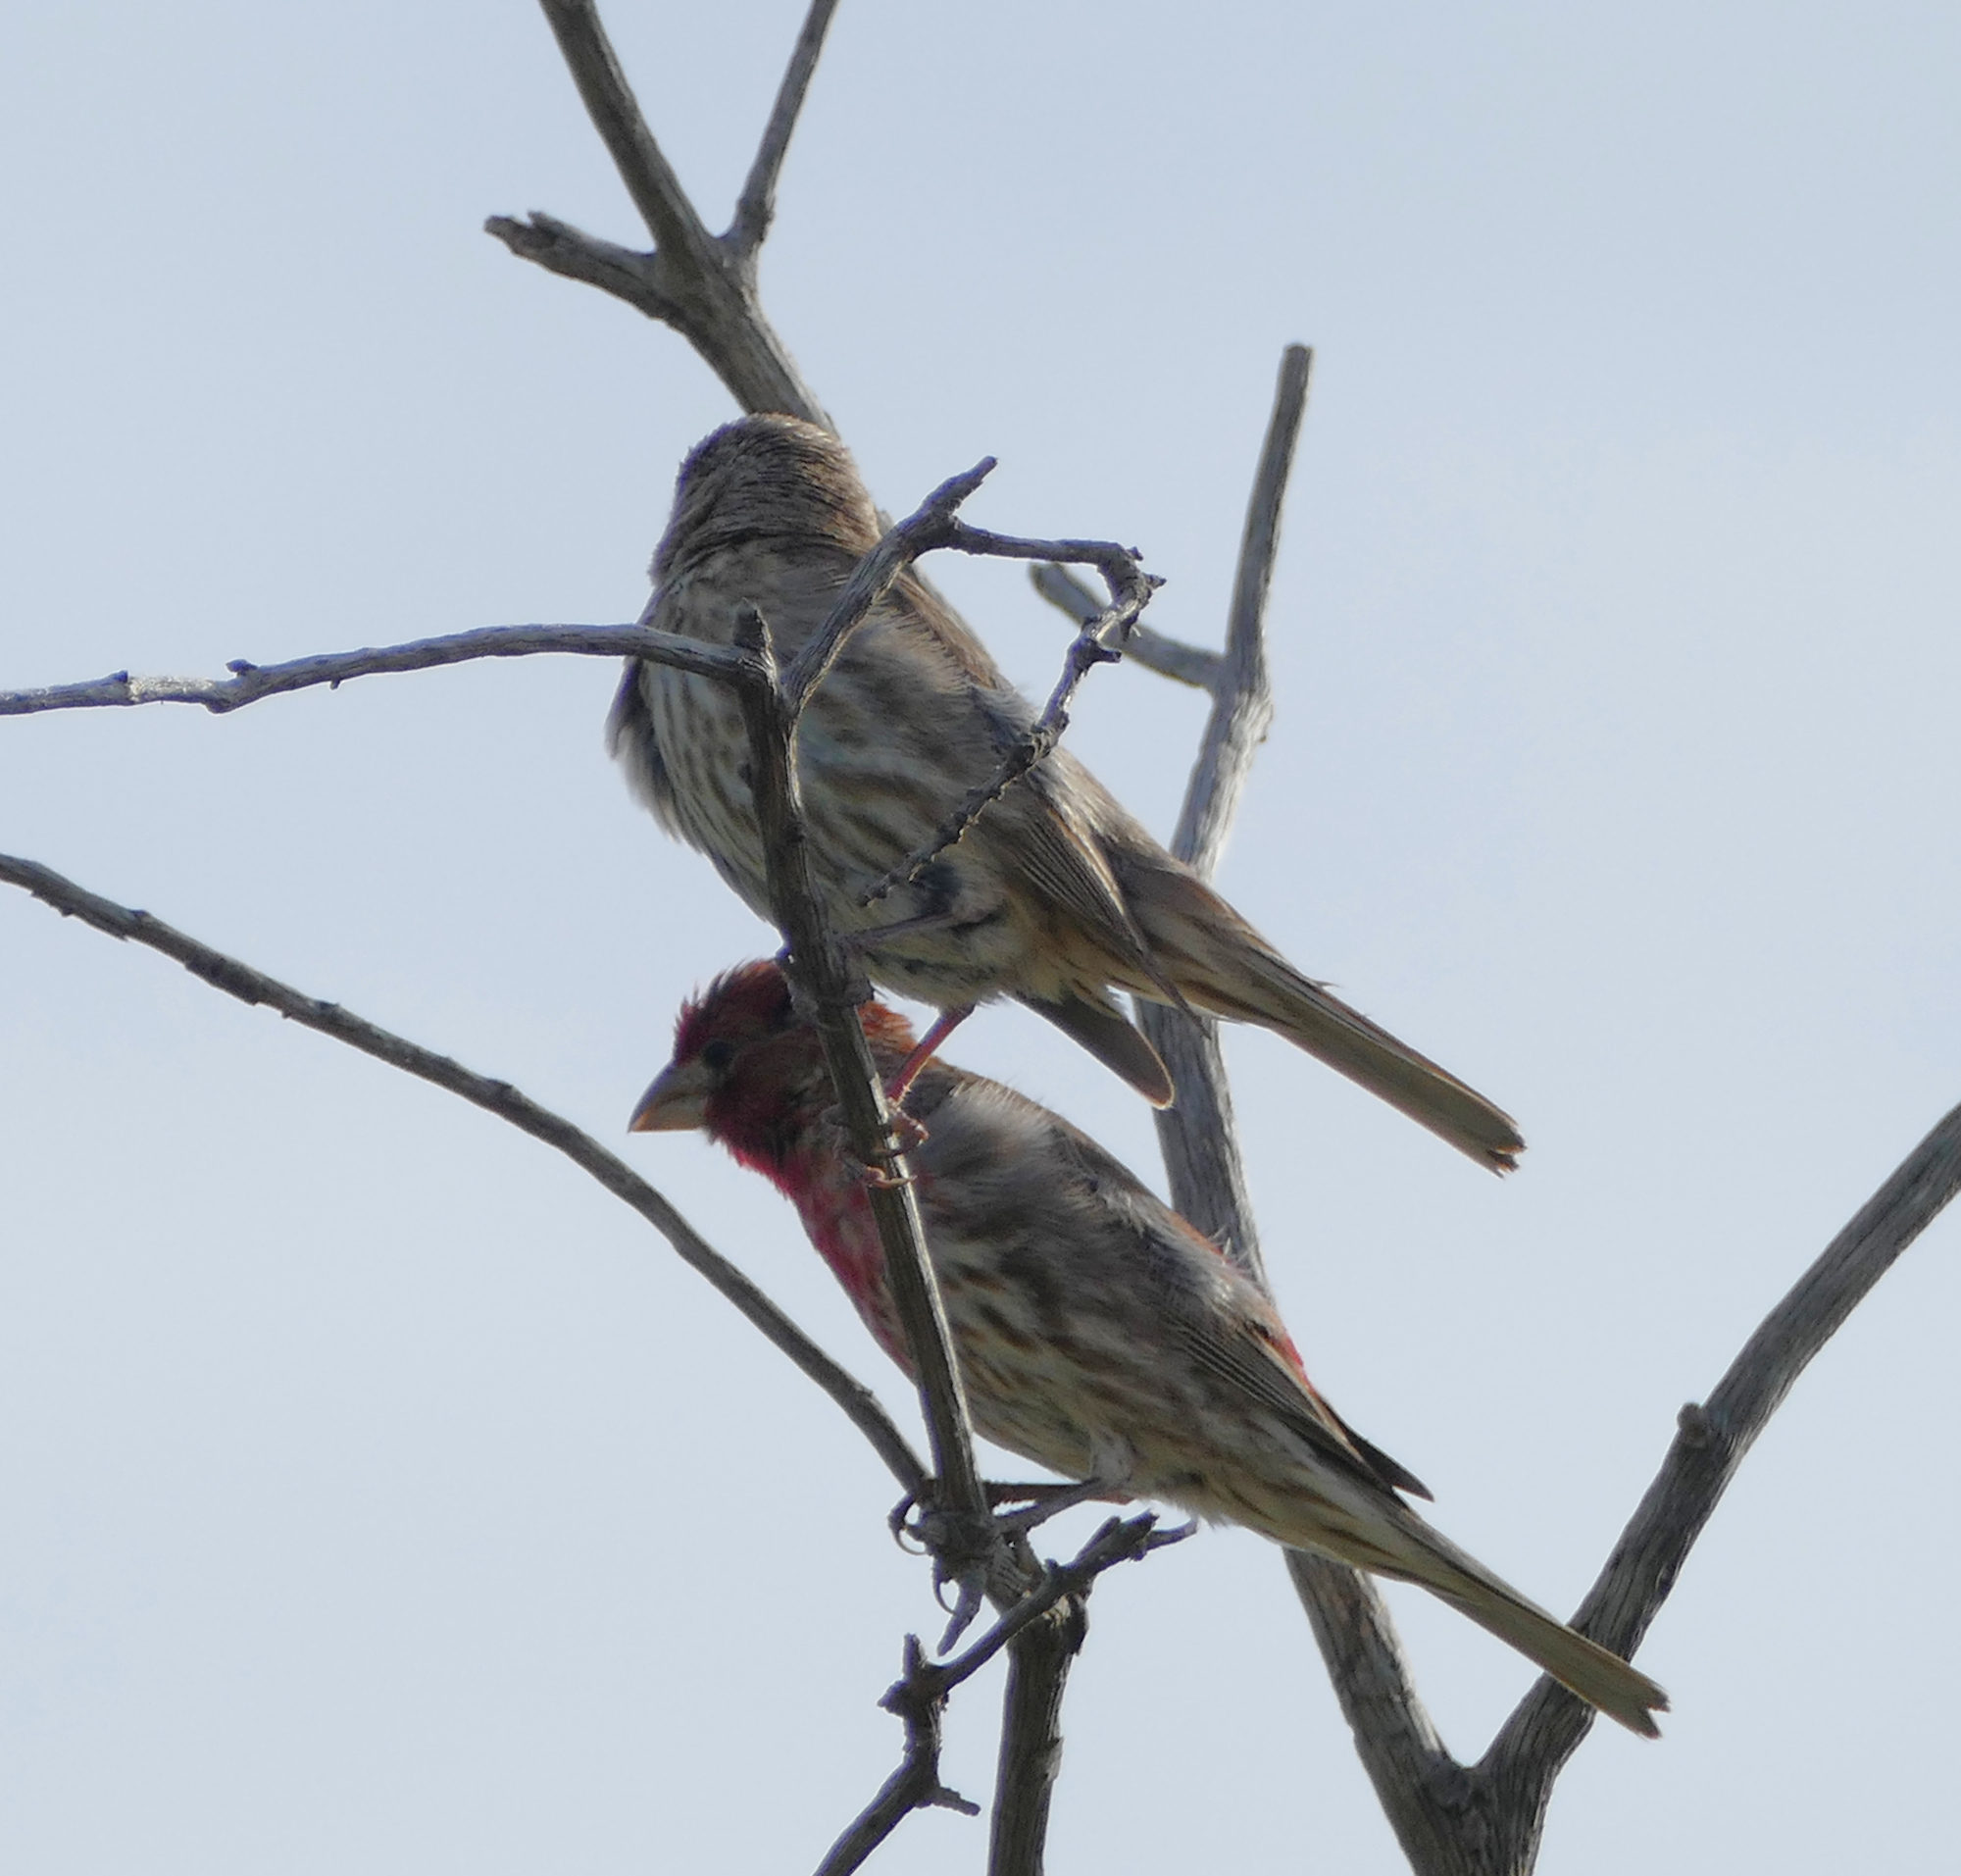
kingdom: Animalia
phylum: Chordata
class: Aves
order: Passeriformes
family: Fringillidae
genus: Haemorhous
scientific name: Haemorhous mexicanus
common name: House finch
